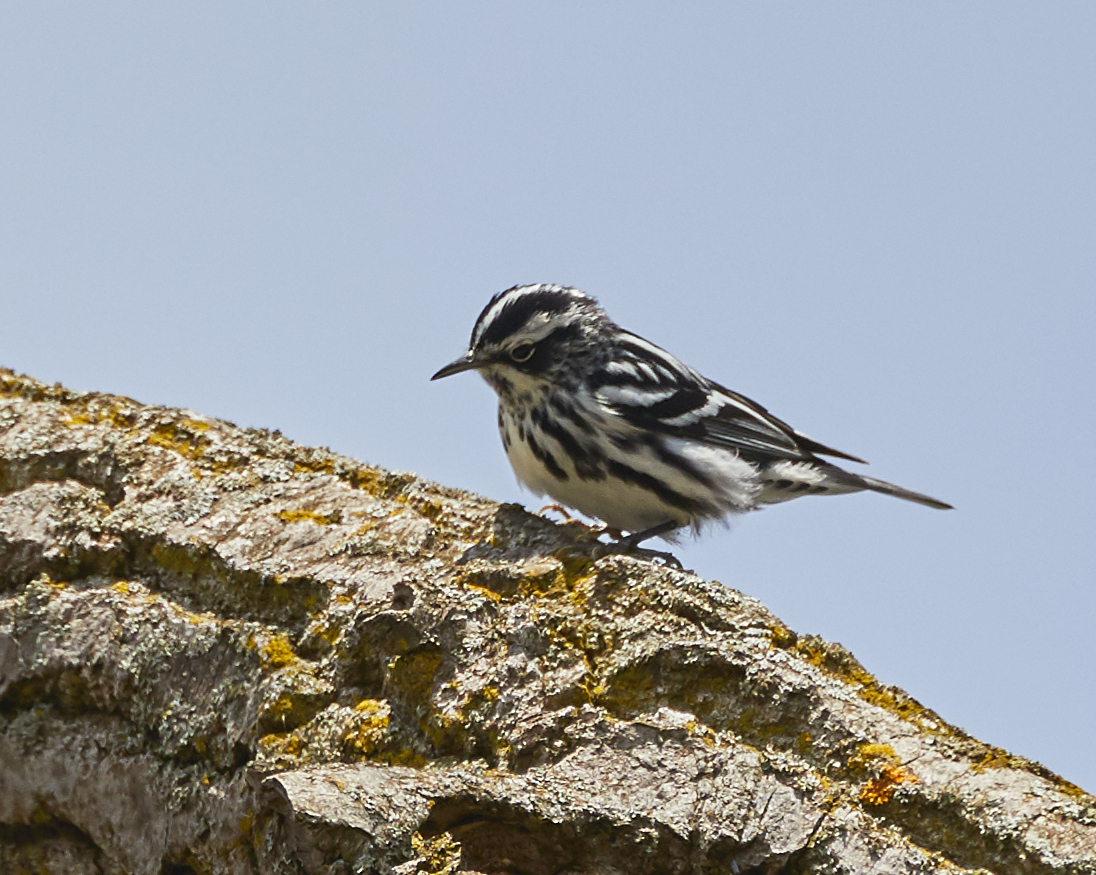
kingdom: Animalia
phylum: Chordata
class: Aves
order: Passeriformes
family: Parulidae
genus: Mniotilta
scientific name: Mniotilta varia
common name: Black-and-white warbler
